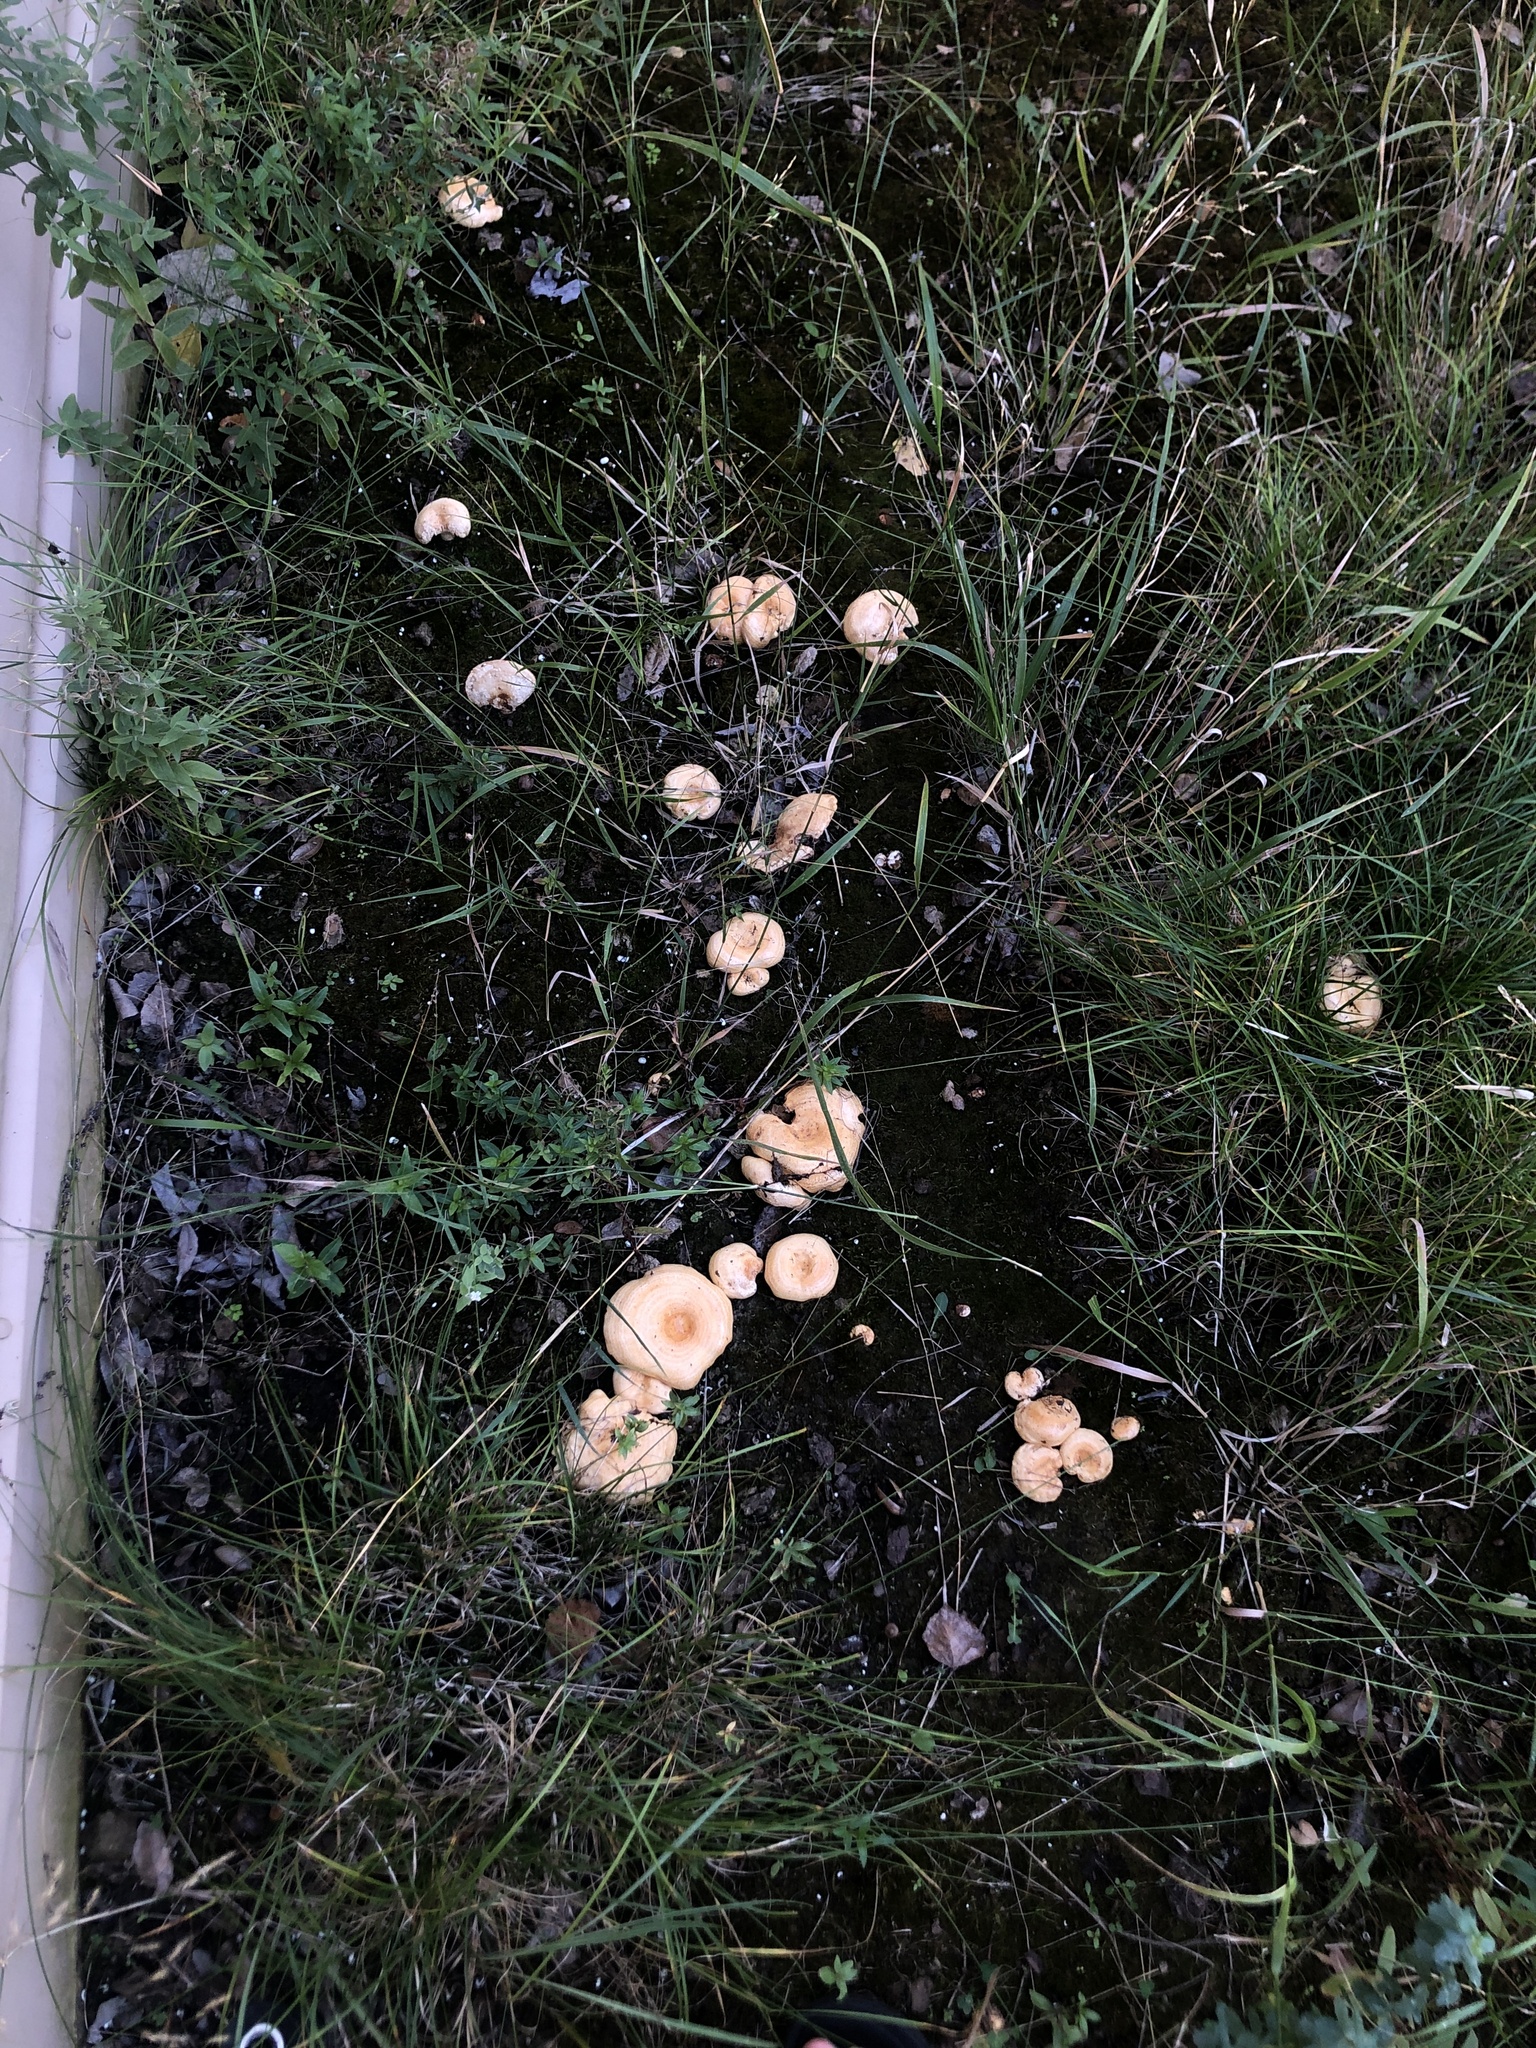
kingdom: Fungi
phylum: Basidiomycota
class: Agaricomycetes
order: Russulales
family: Russulaceae
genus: Lactarius
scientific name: Lactarius alnicola
